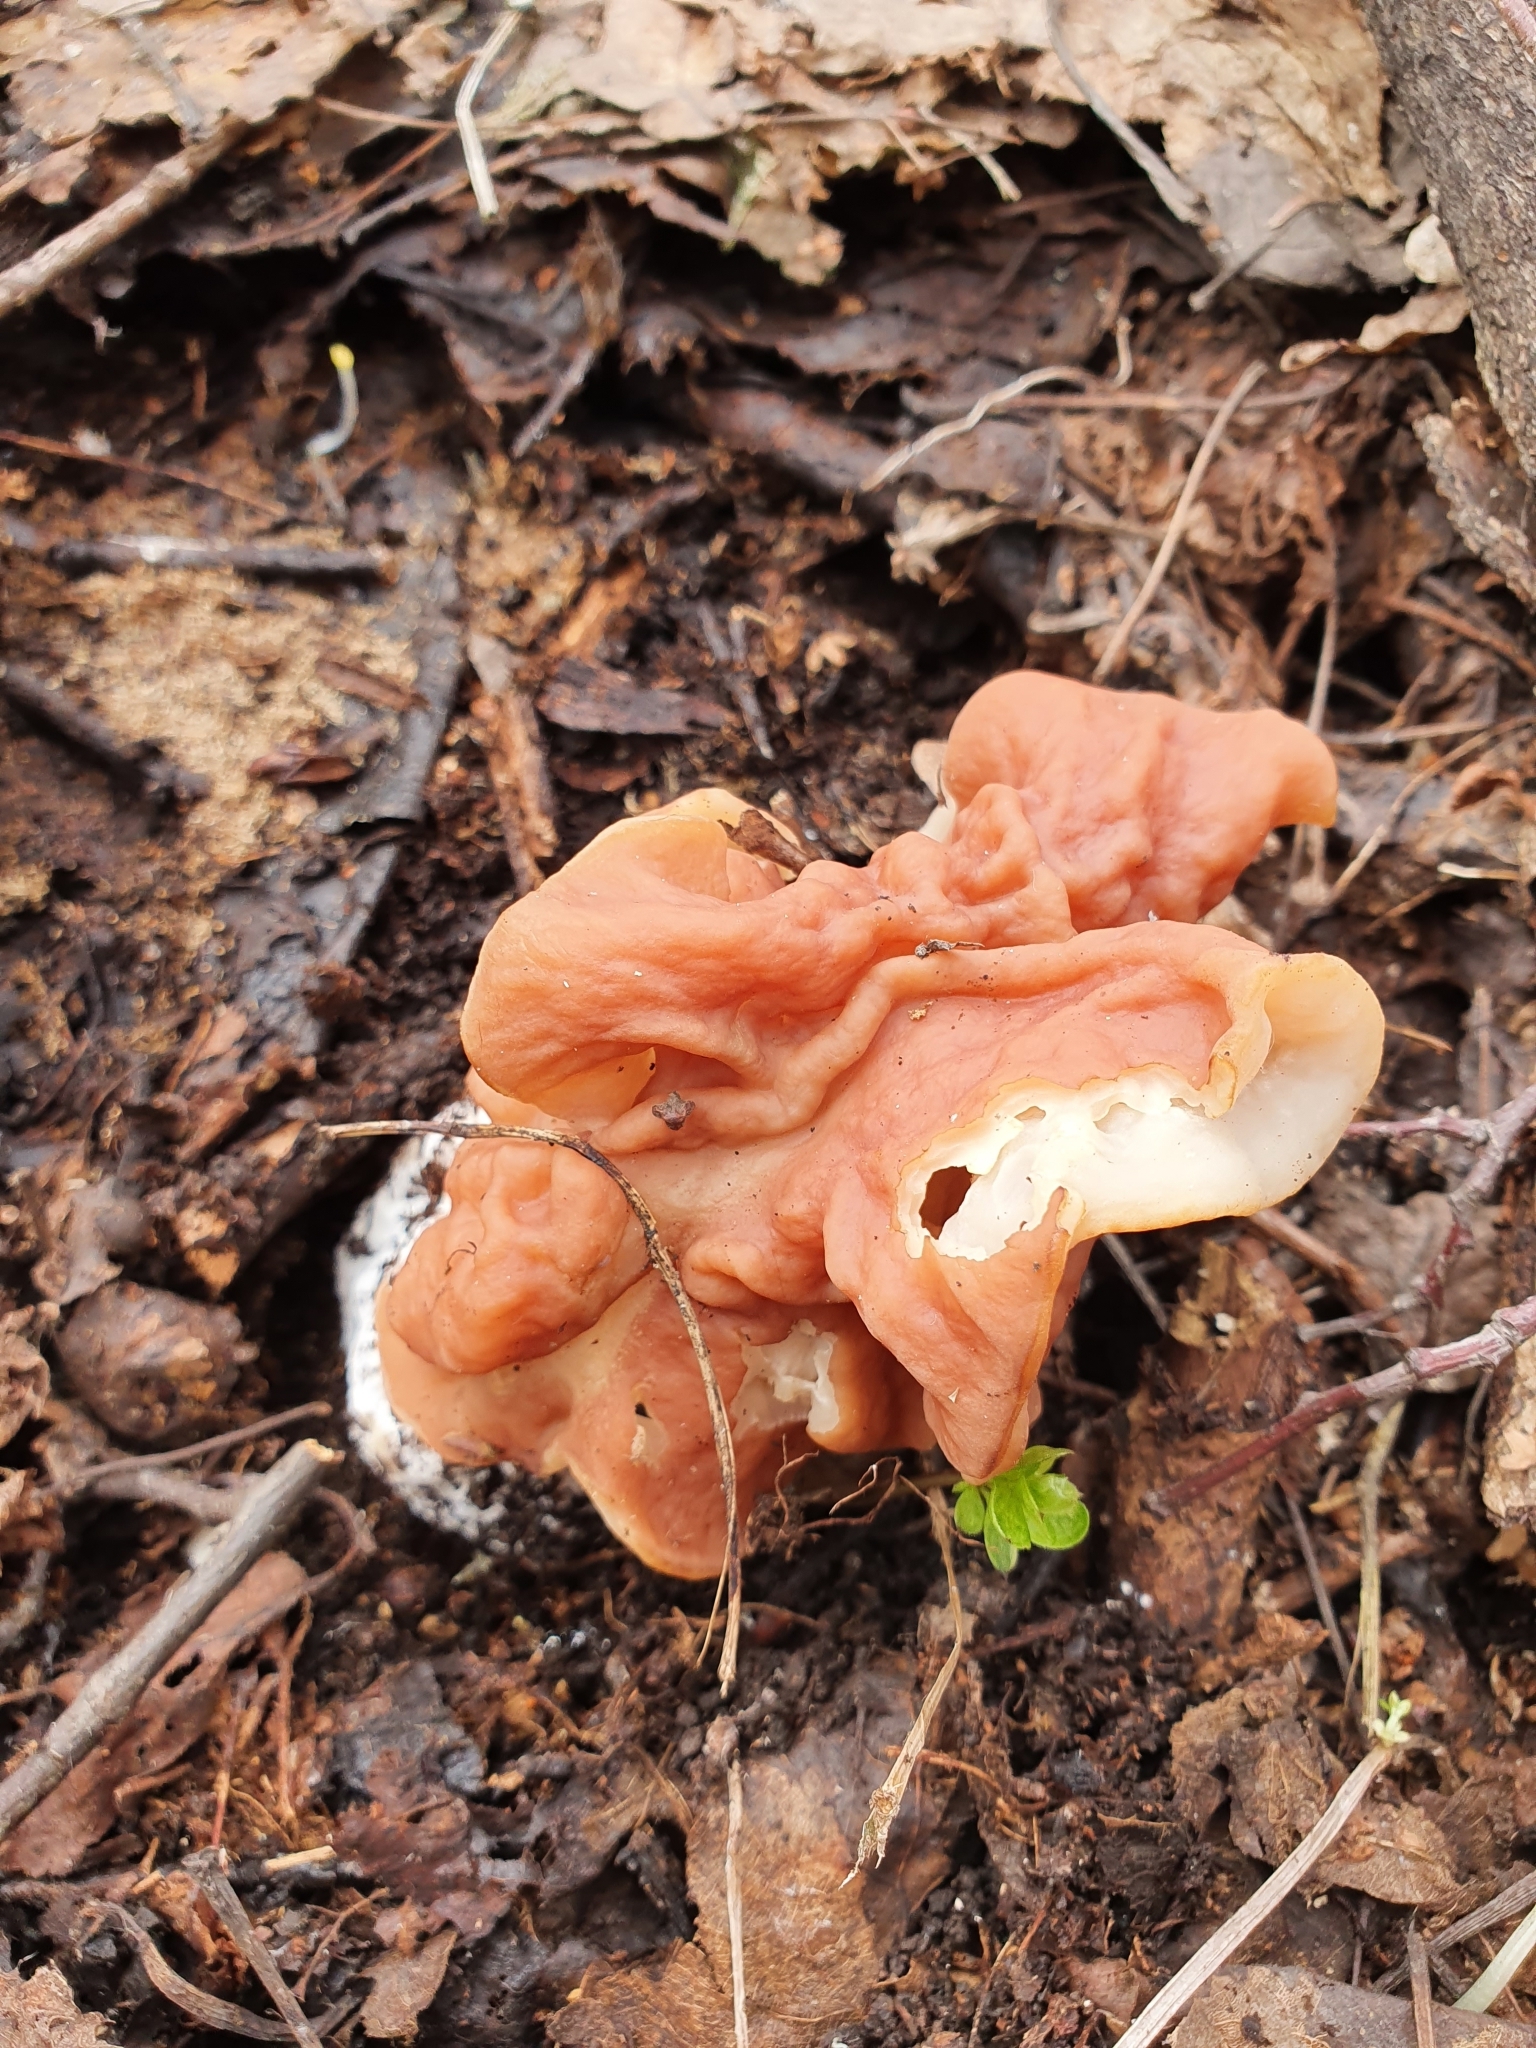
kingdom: Fungi
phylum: Ascomycota
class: Pezizomycetes
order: Pezizales
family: Discinaceae
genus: Discina
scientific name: Discina fastigiata
